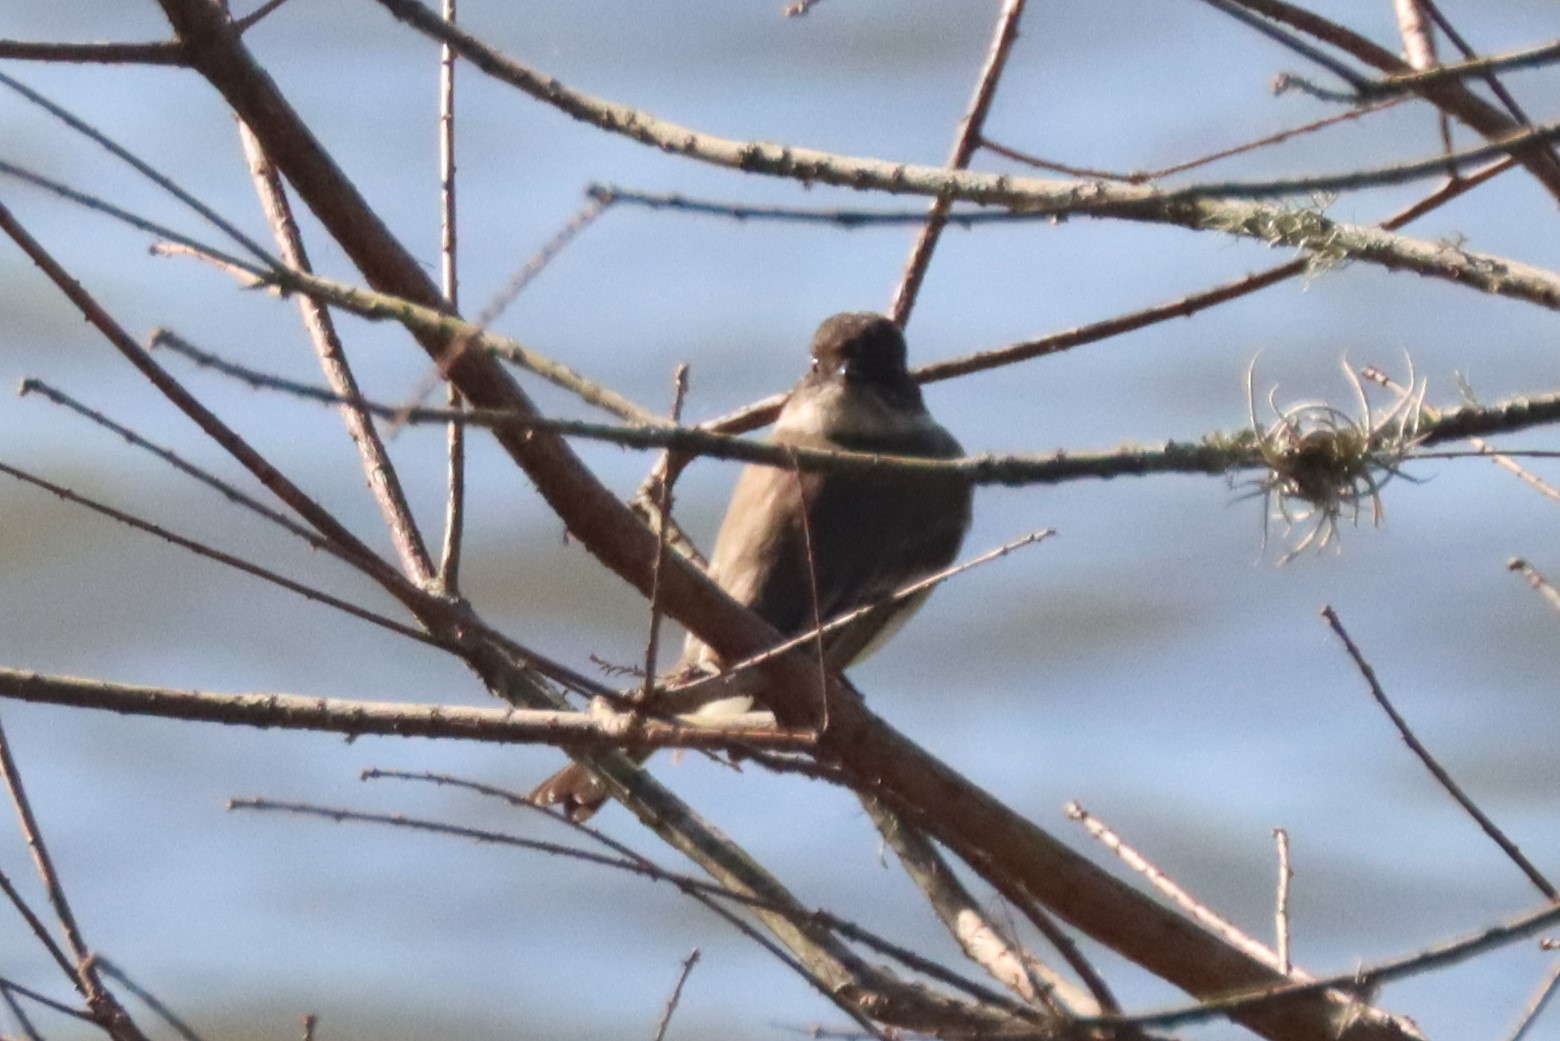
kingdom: Animalia
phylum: Chordata
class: Aves
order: Passeriformes
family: Tyrannidae
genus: Sayornis
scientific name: Sayornis phoebe
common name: Eastern phoebe
